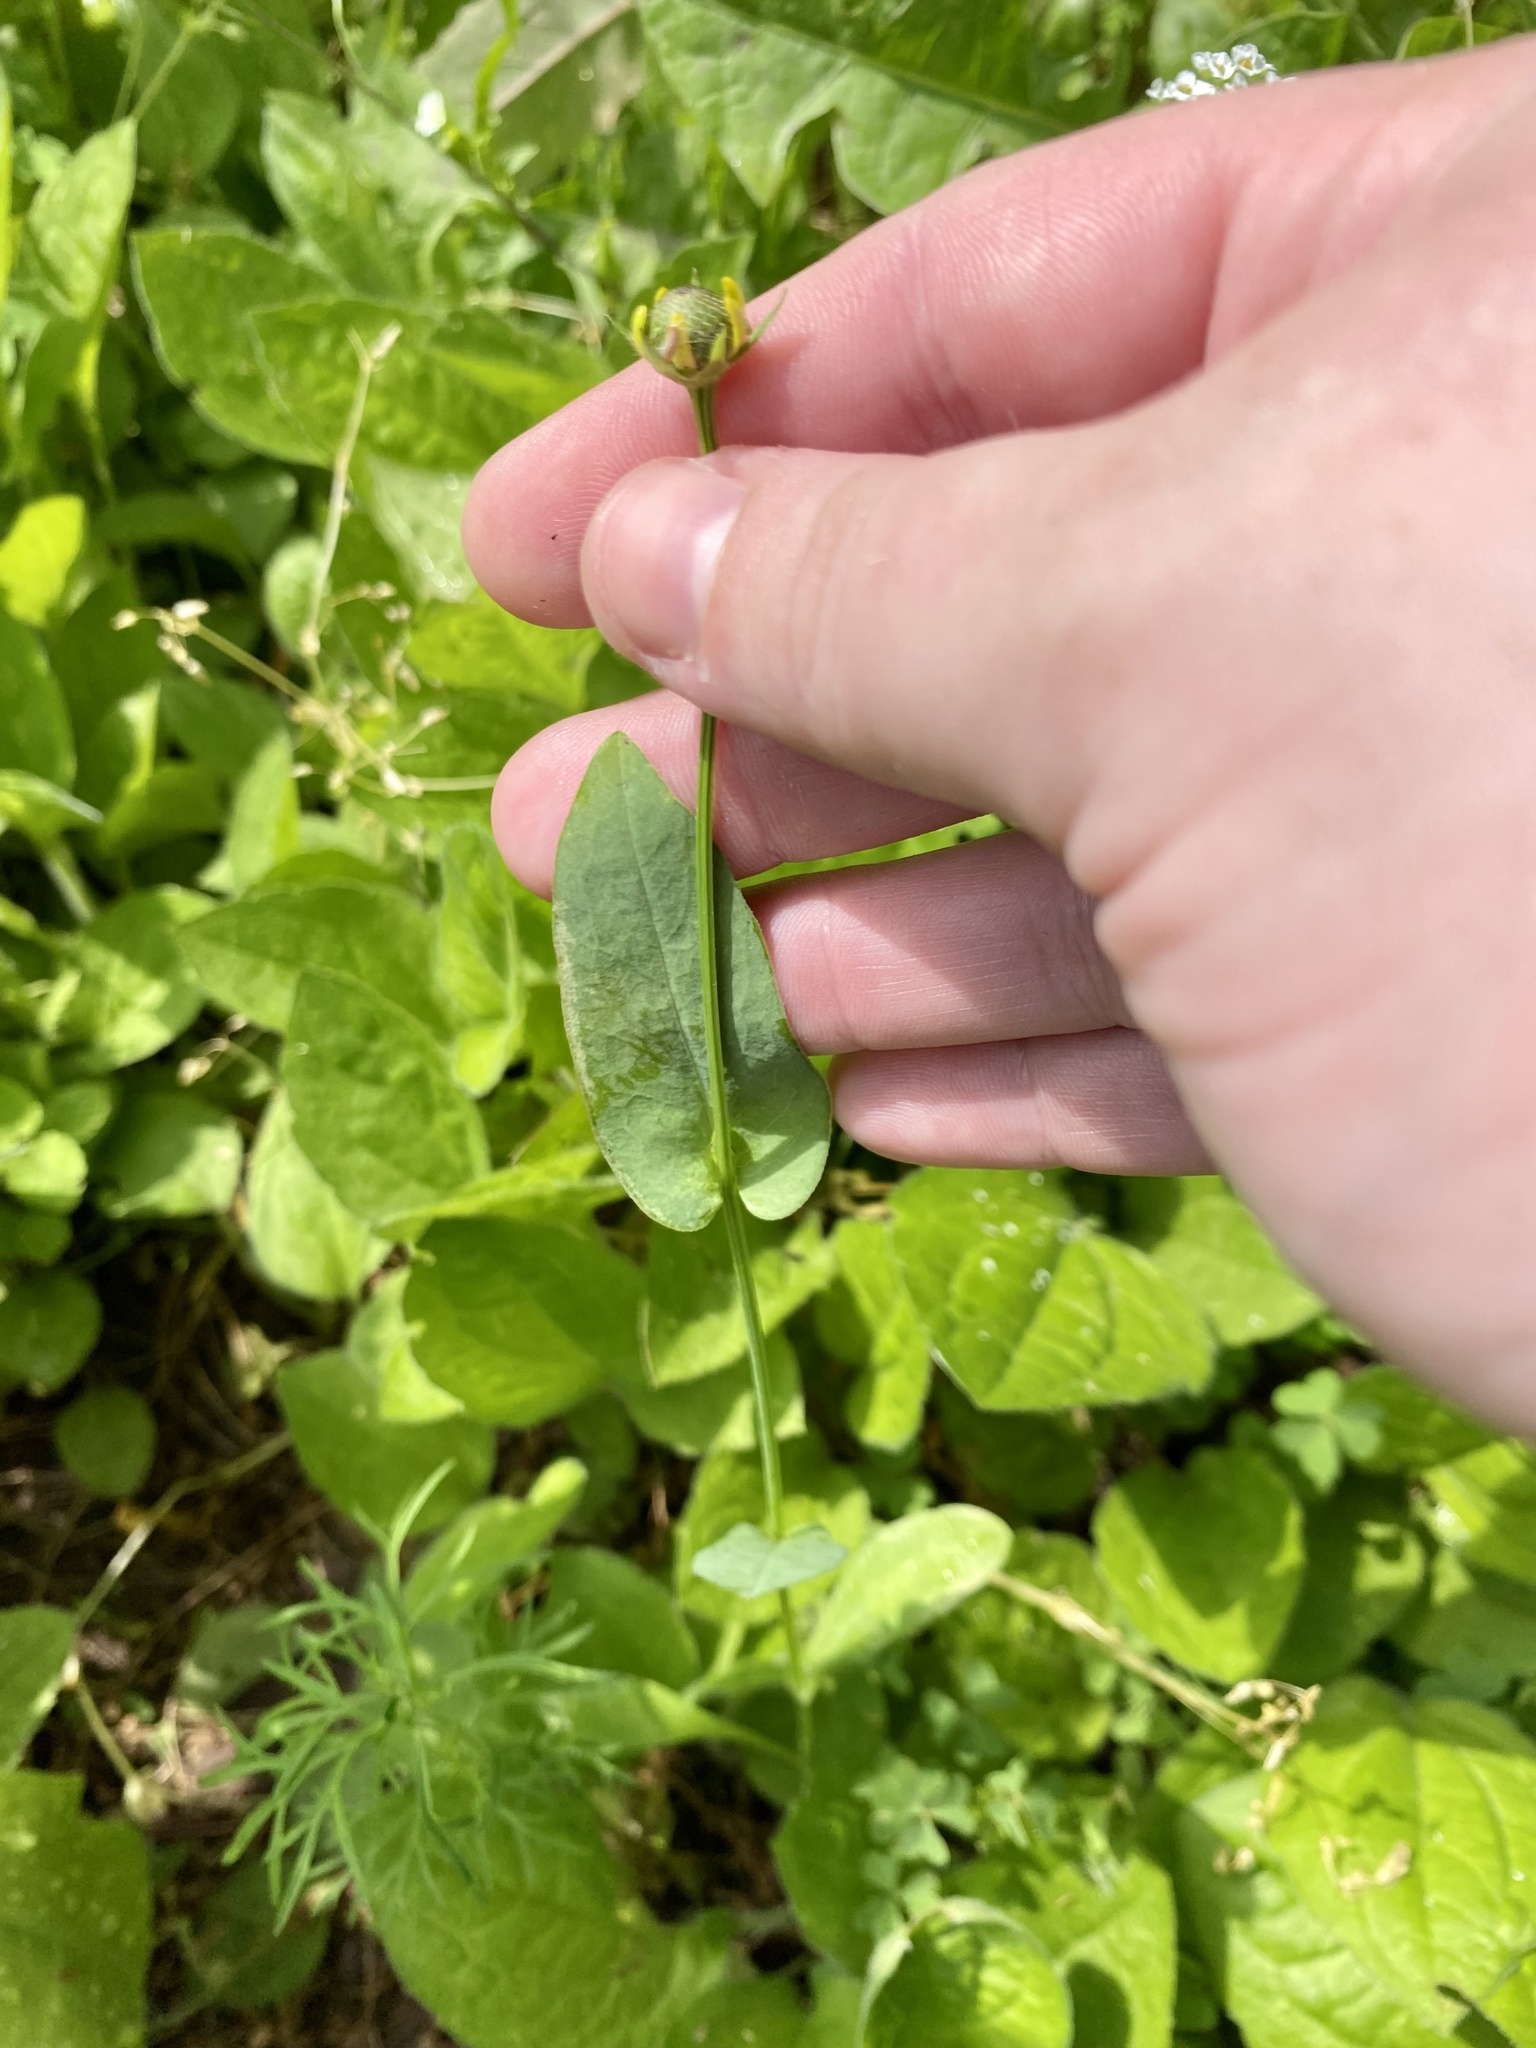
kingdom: Plantae
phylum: Tracheophyta
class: Magnoliopsida
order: Asterales
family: Asteraceae
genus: Rudbeckia
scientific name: Rudbeckia amplexicaulis
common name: Clasping-leaf coneflower
